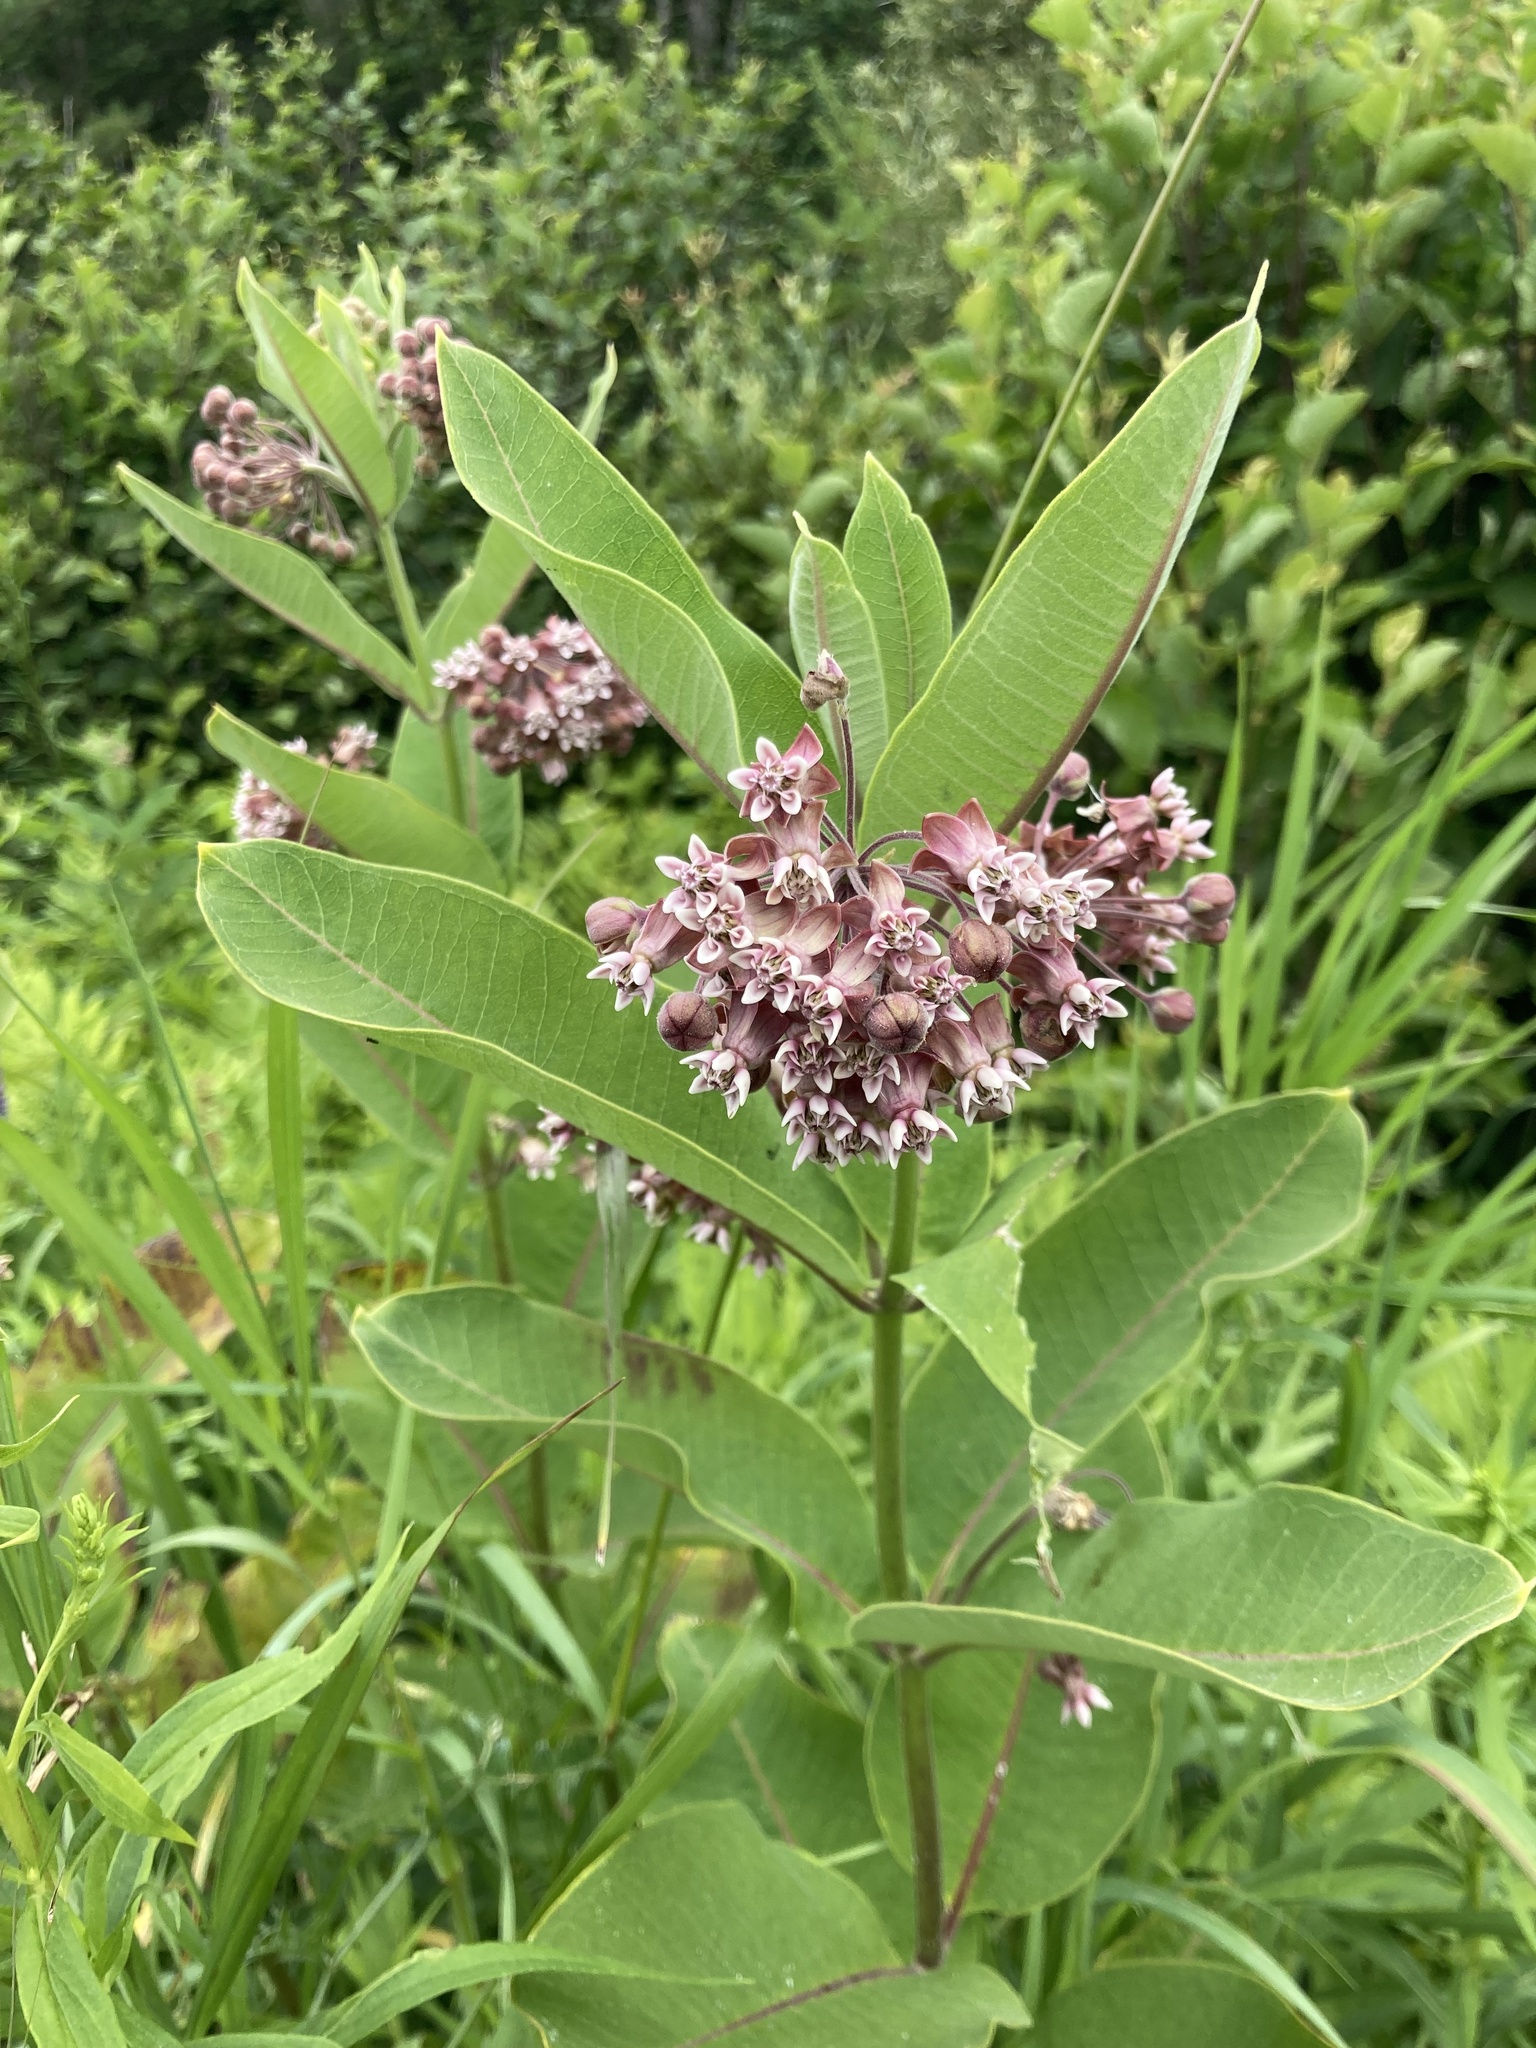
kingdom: Plantae
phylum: Tracheophyta
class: Magnoliopsida
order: Gentianales
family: Apocynaceae
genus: Asclepias
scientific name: Asclepias syriaca
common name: Common milkweed
